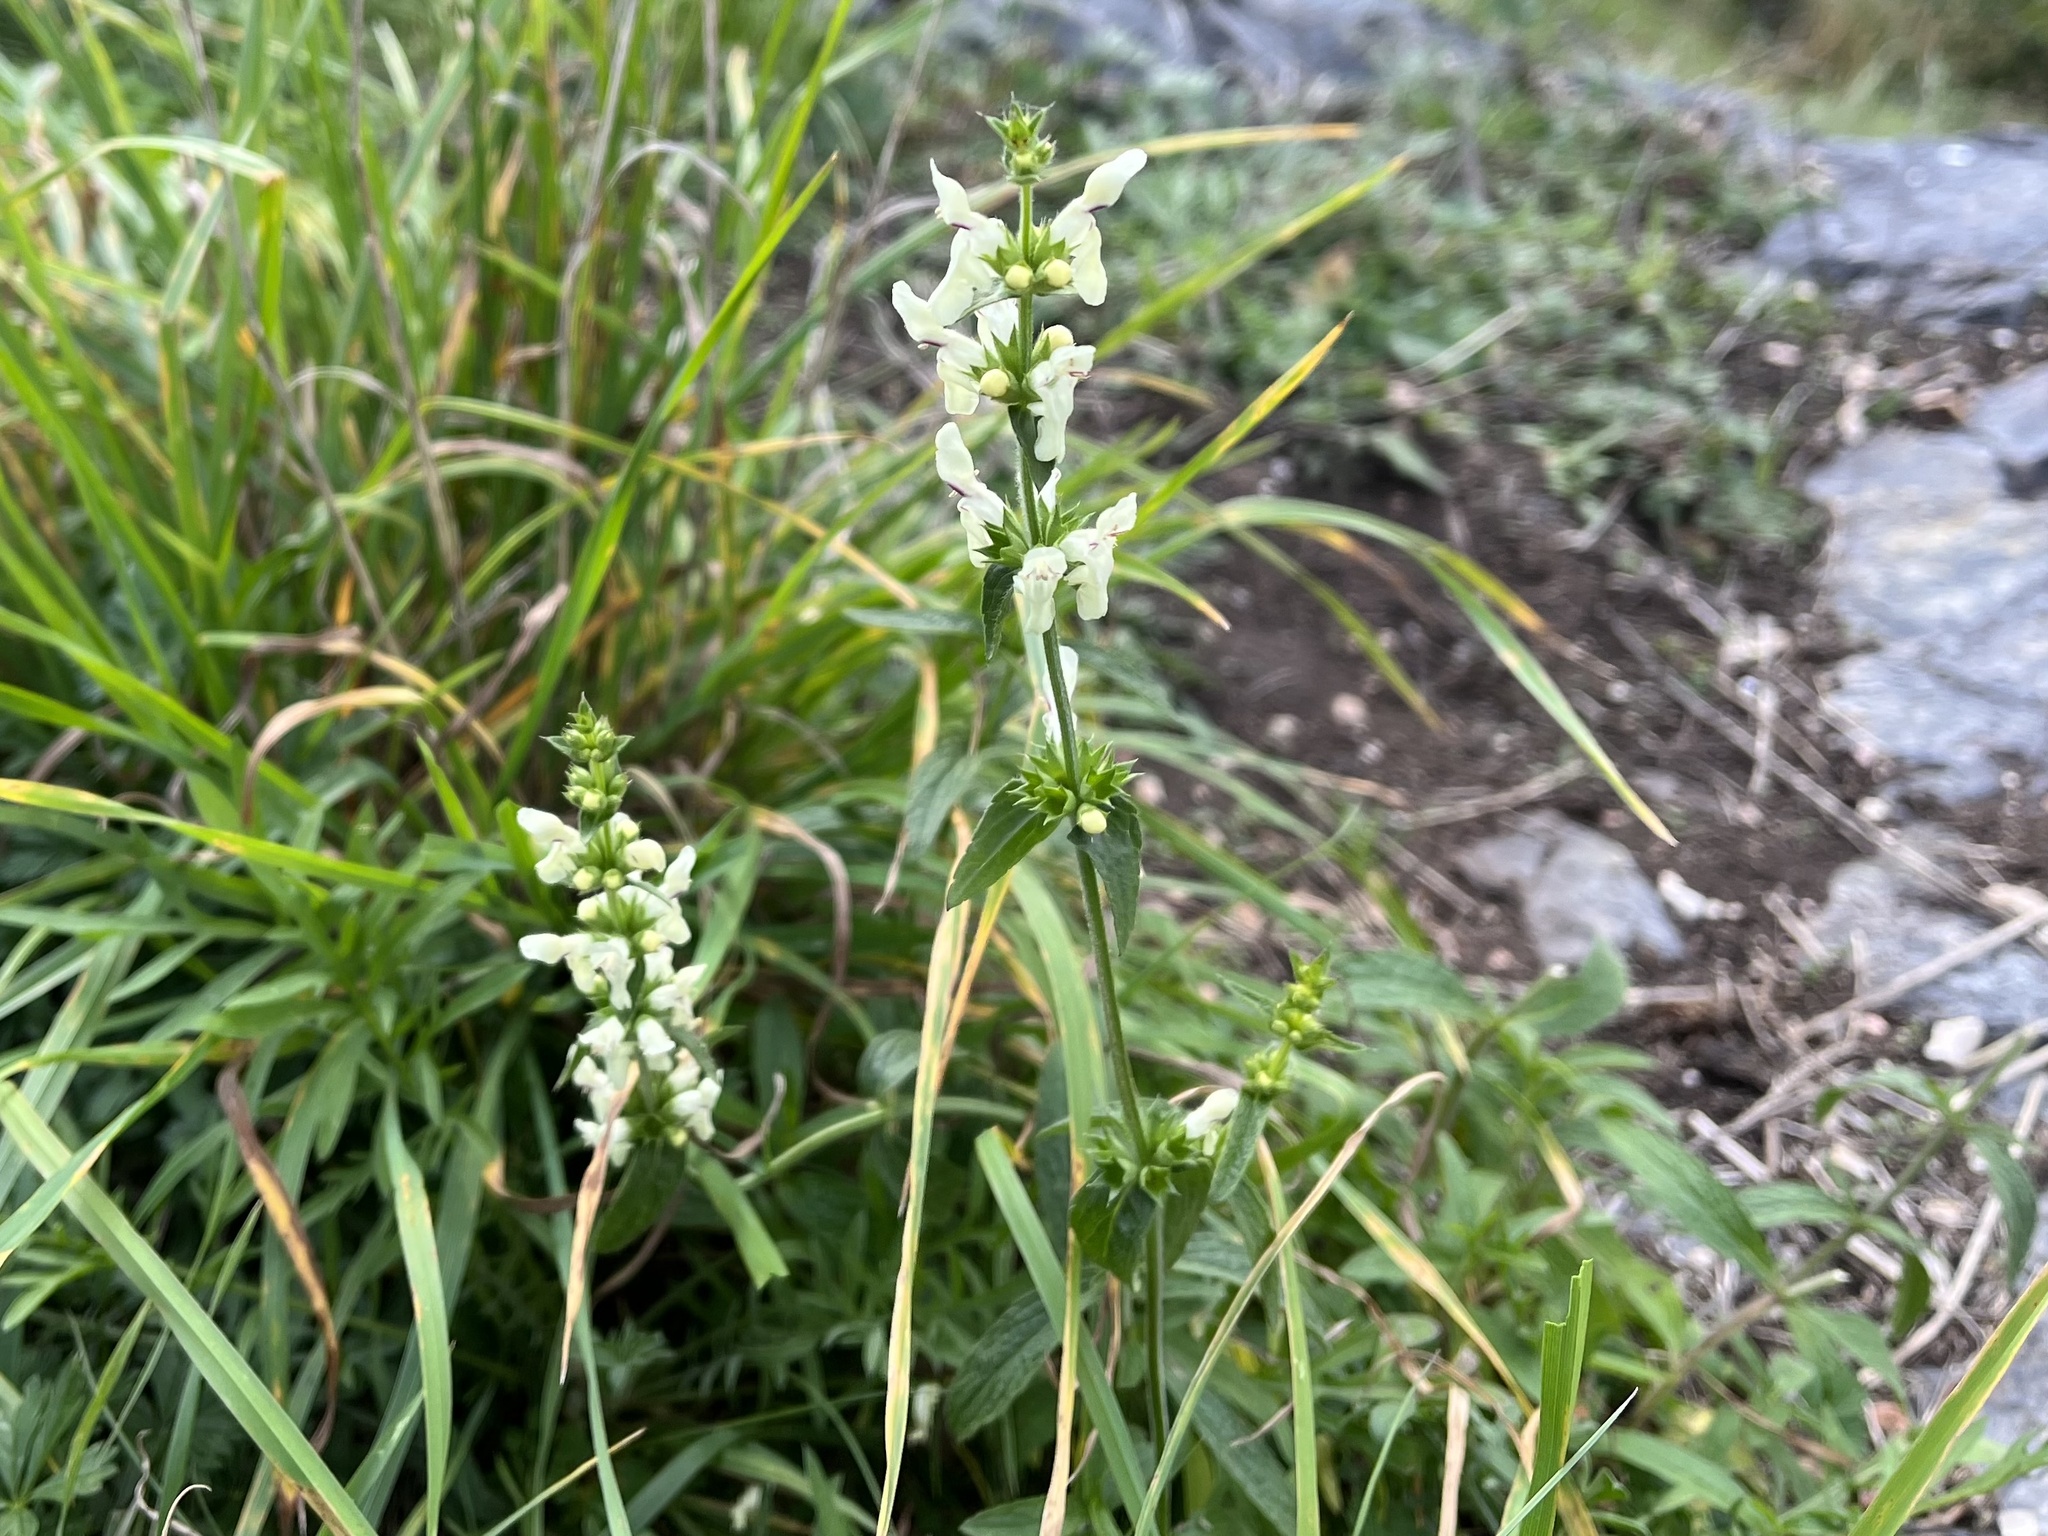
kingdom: Plantae
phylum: Tracheophyta
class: Magnoliopsida
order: Lamiales
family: Lamiaceae
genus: Stachys
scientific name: Stachys recta
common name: Perennial yellow-woundwort
